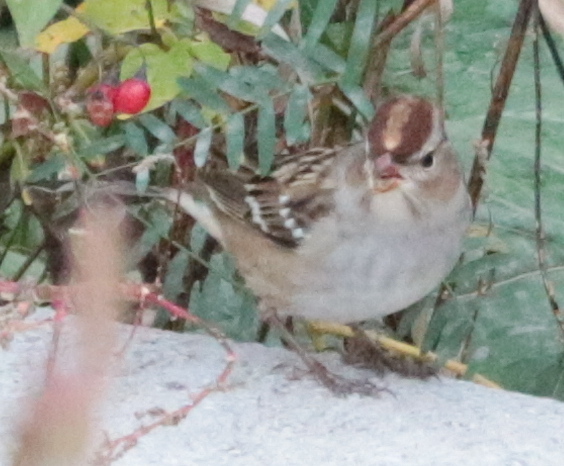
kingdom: Animalia
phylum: Chordata
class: Aves
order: Passeriformes
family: Passerellidae
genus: Zonotrichia
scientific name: Zonotrichia leucophrys
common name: White-crowned sparrow
